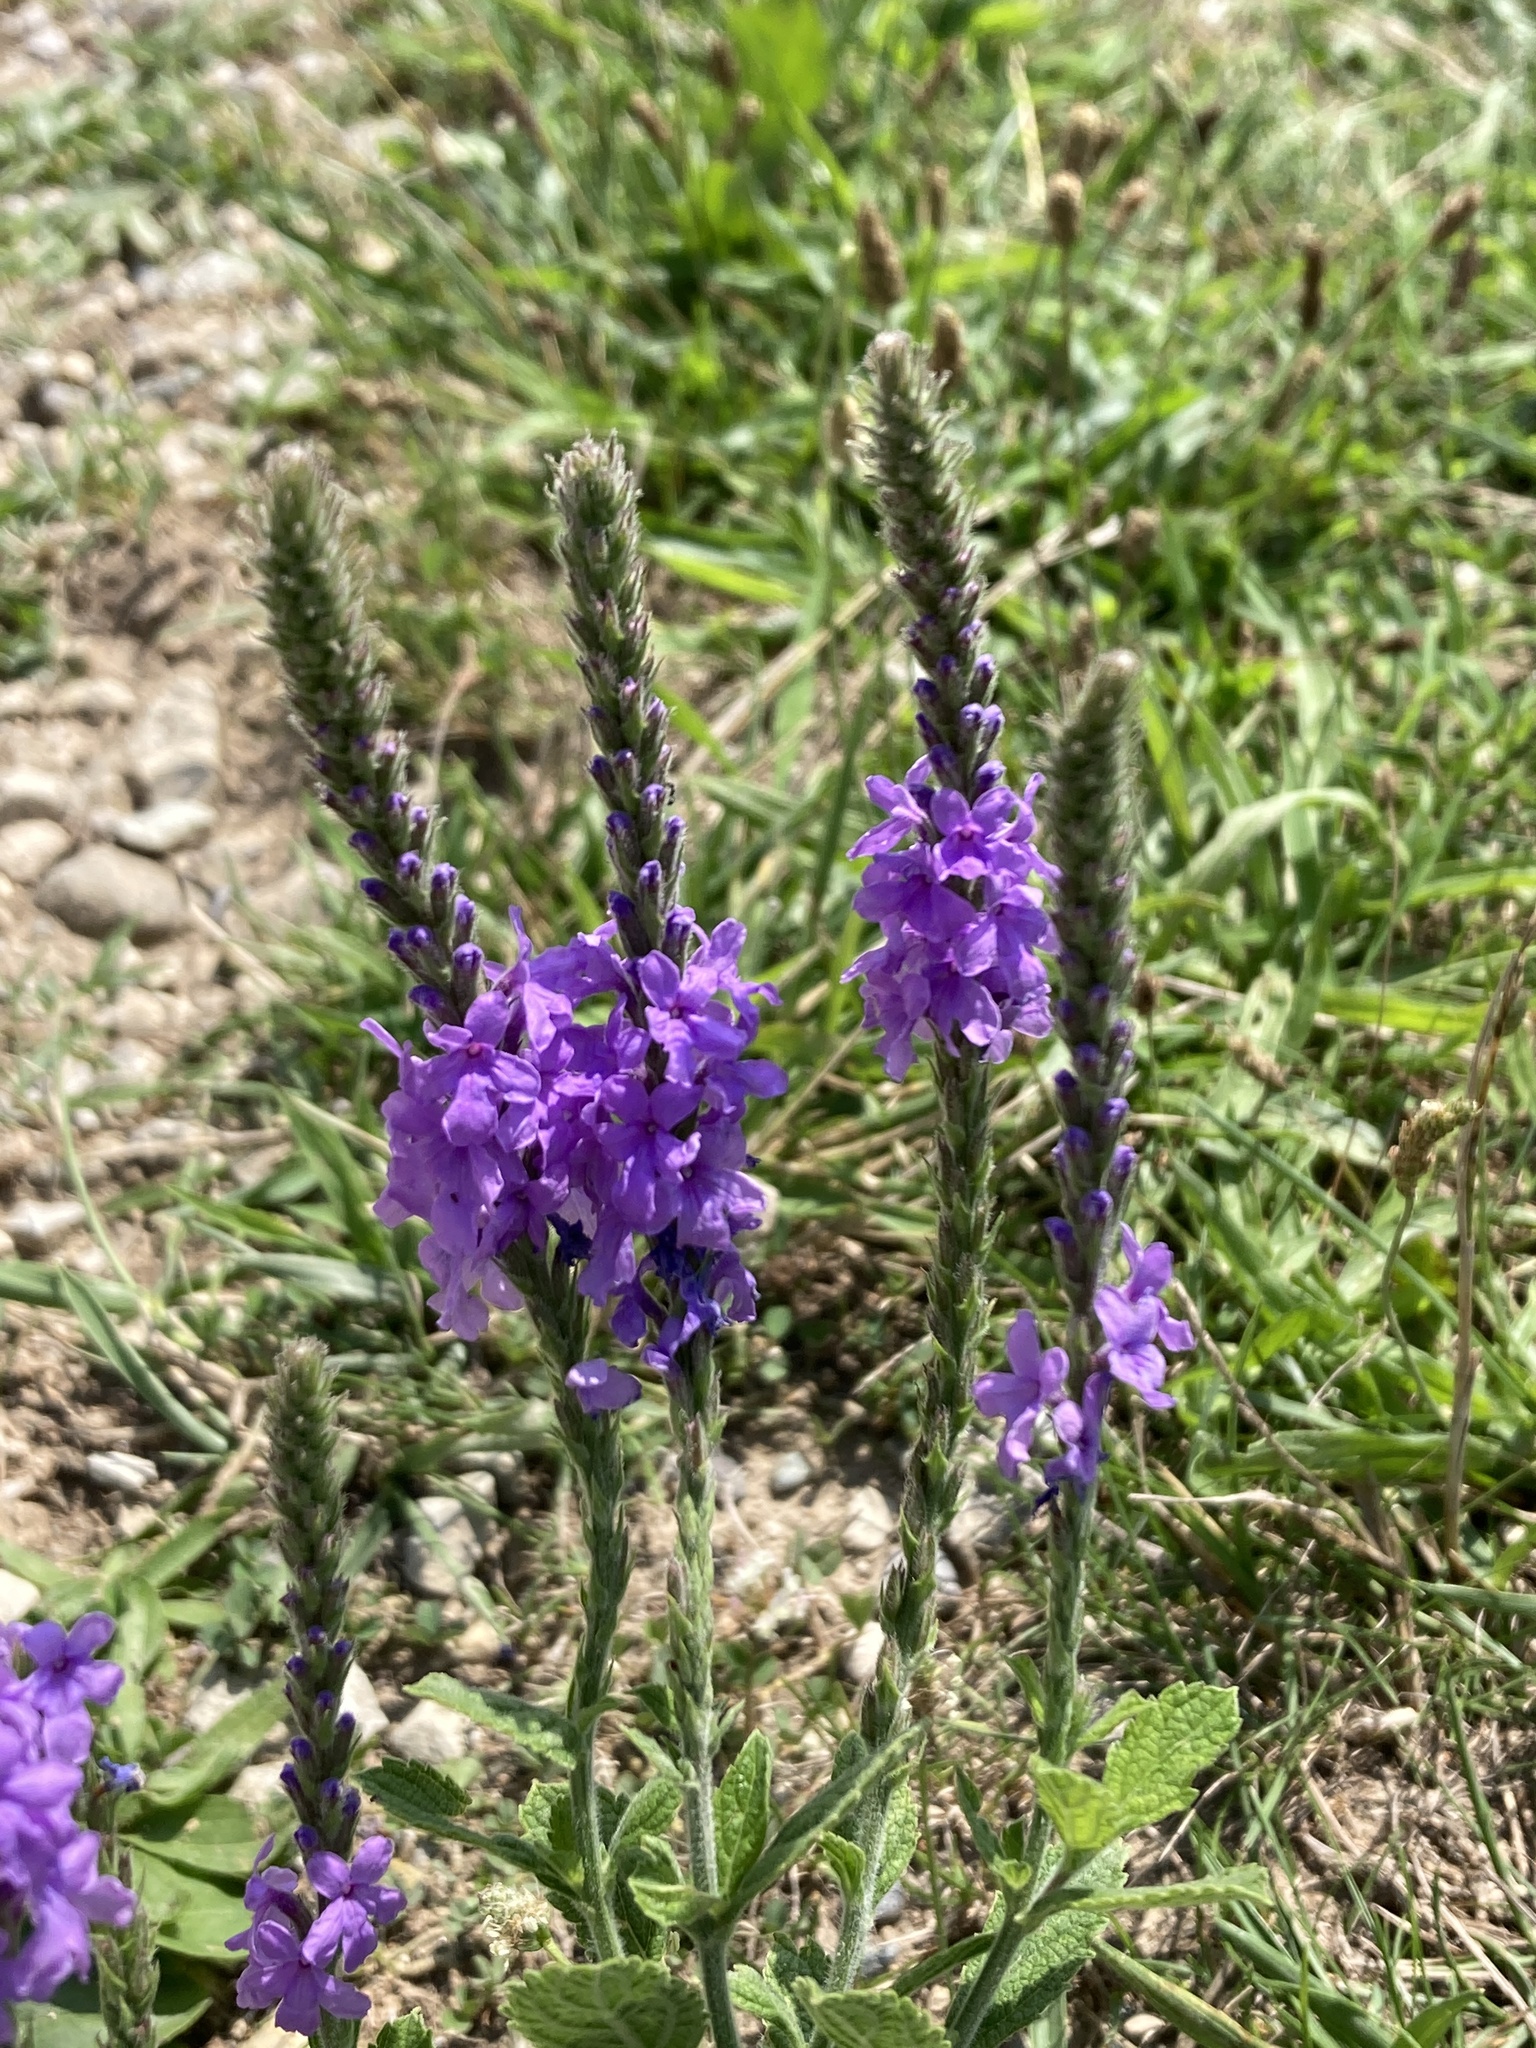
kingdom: Plantae
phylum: Tracheophyta
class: Magnoliopsida
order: Lamiales
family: Verbenaceae
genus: Verbena
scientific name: Verbena stricta
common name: Hoary vervain
